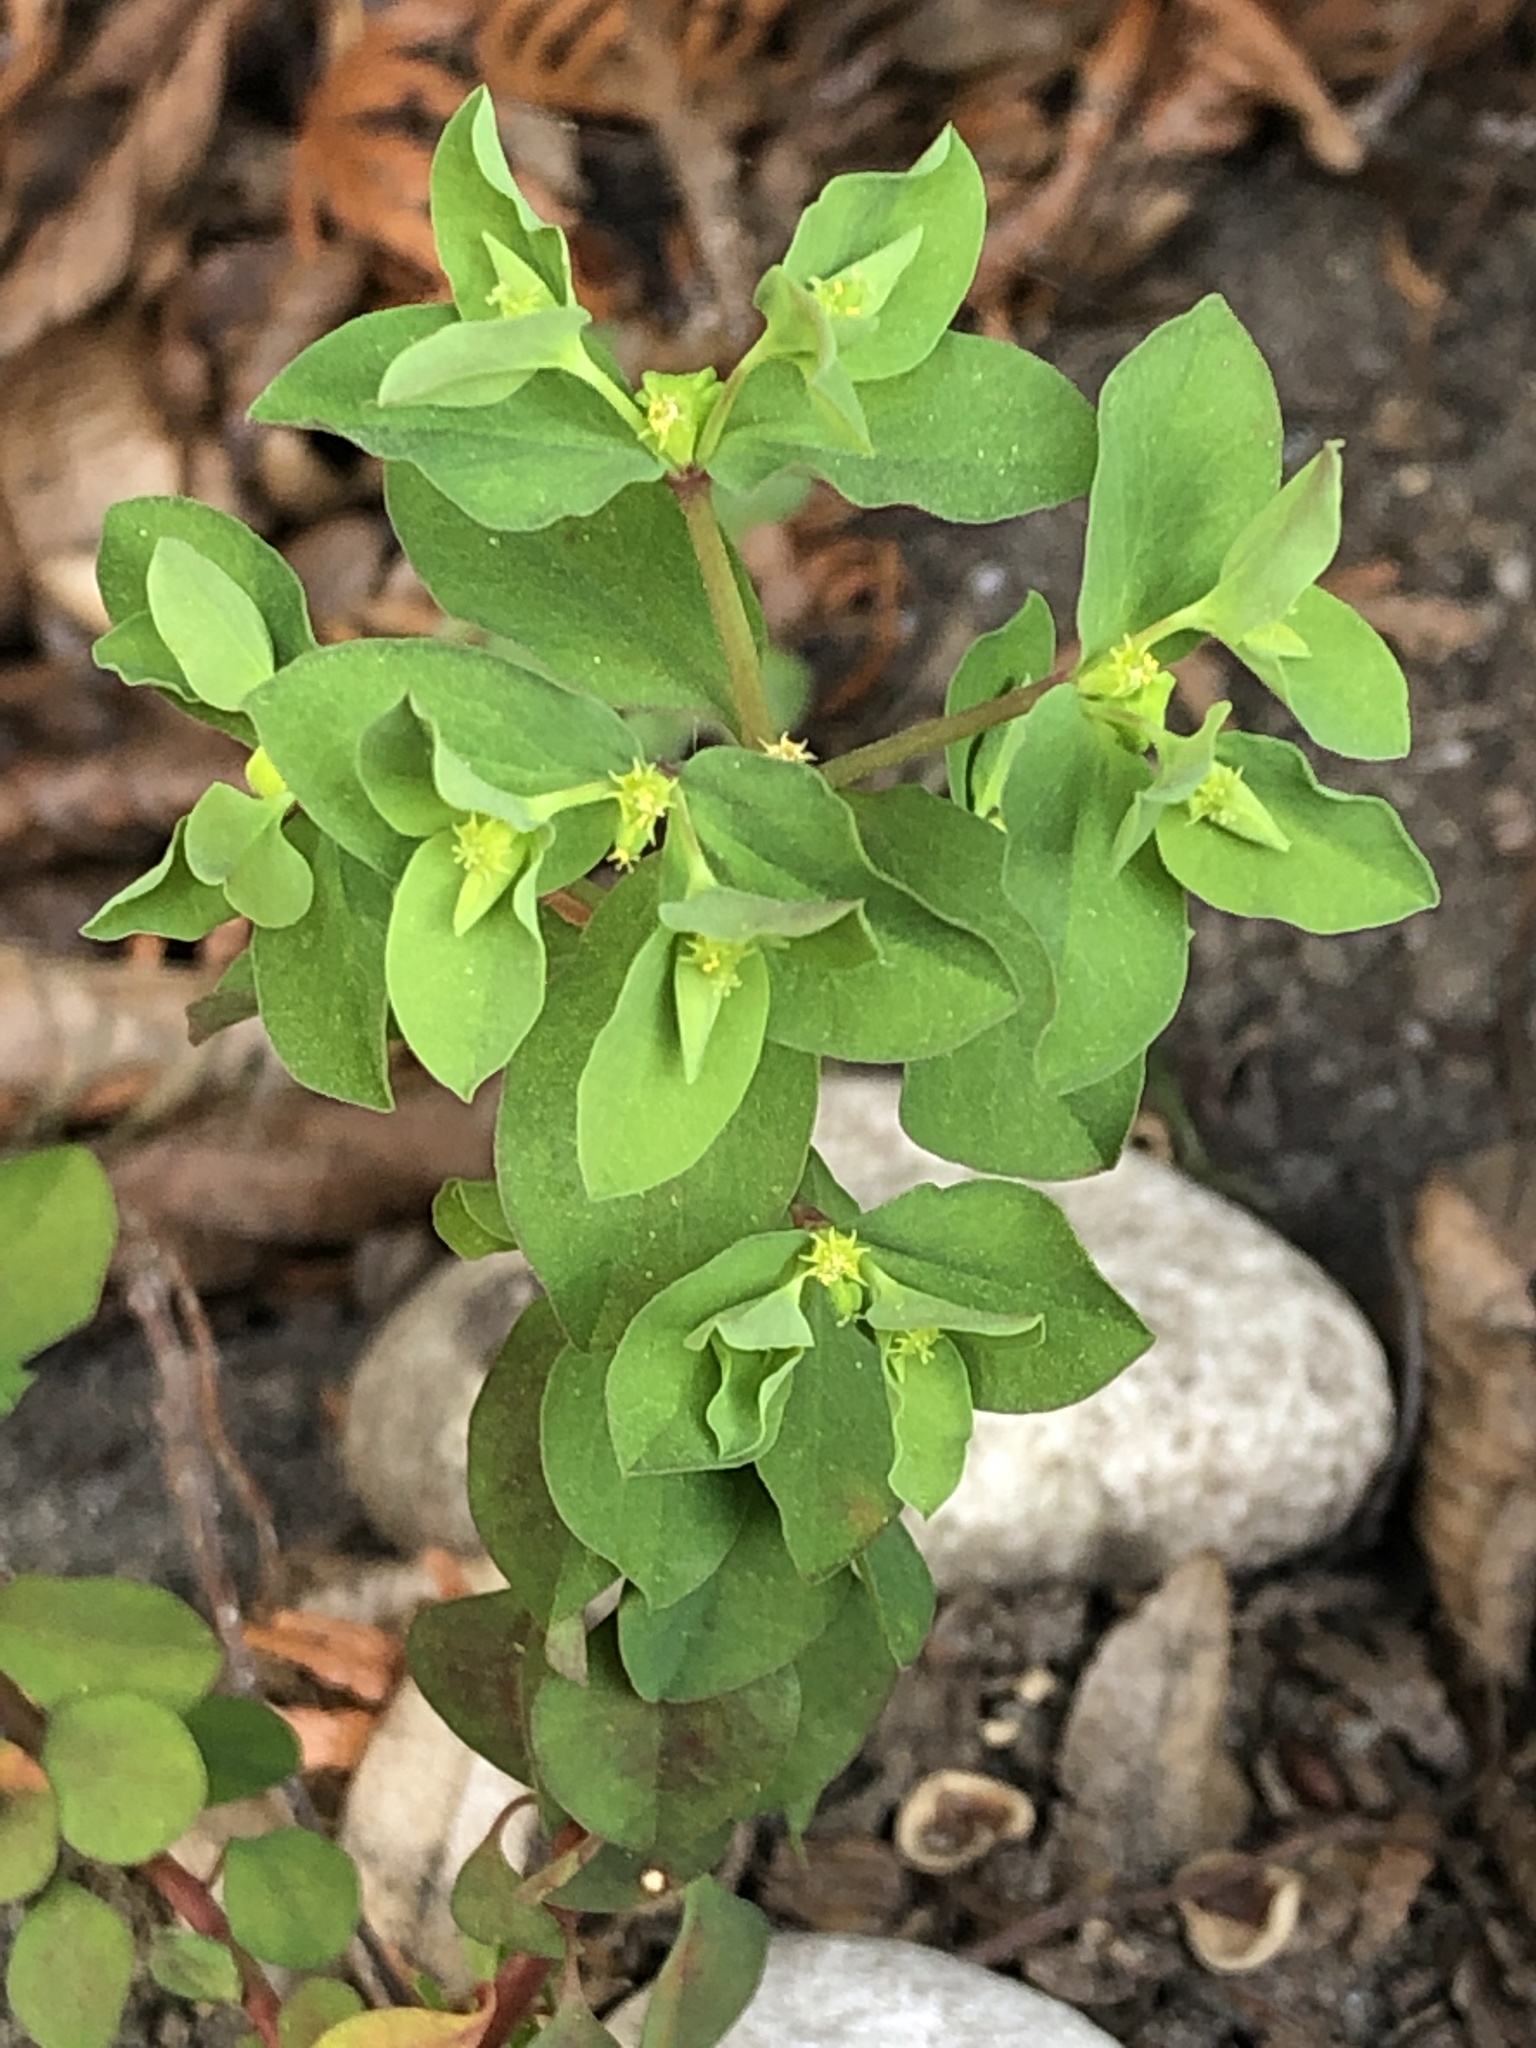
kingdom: Plantae
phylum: Tracheophyta
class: Magnoliopsida
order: Malpighiales
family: Euphorbiaceae
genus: Euphorbia
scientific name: Euphorbia peplus
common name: Petty spurge
